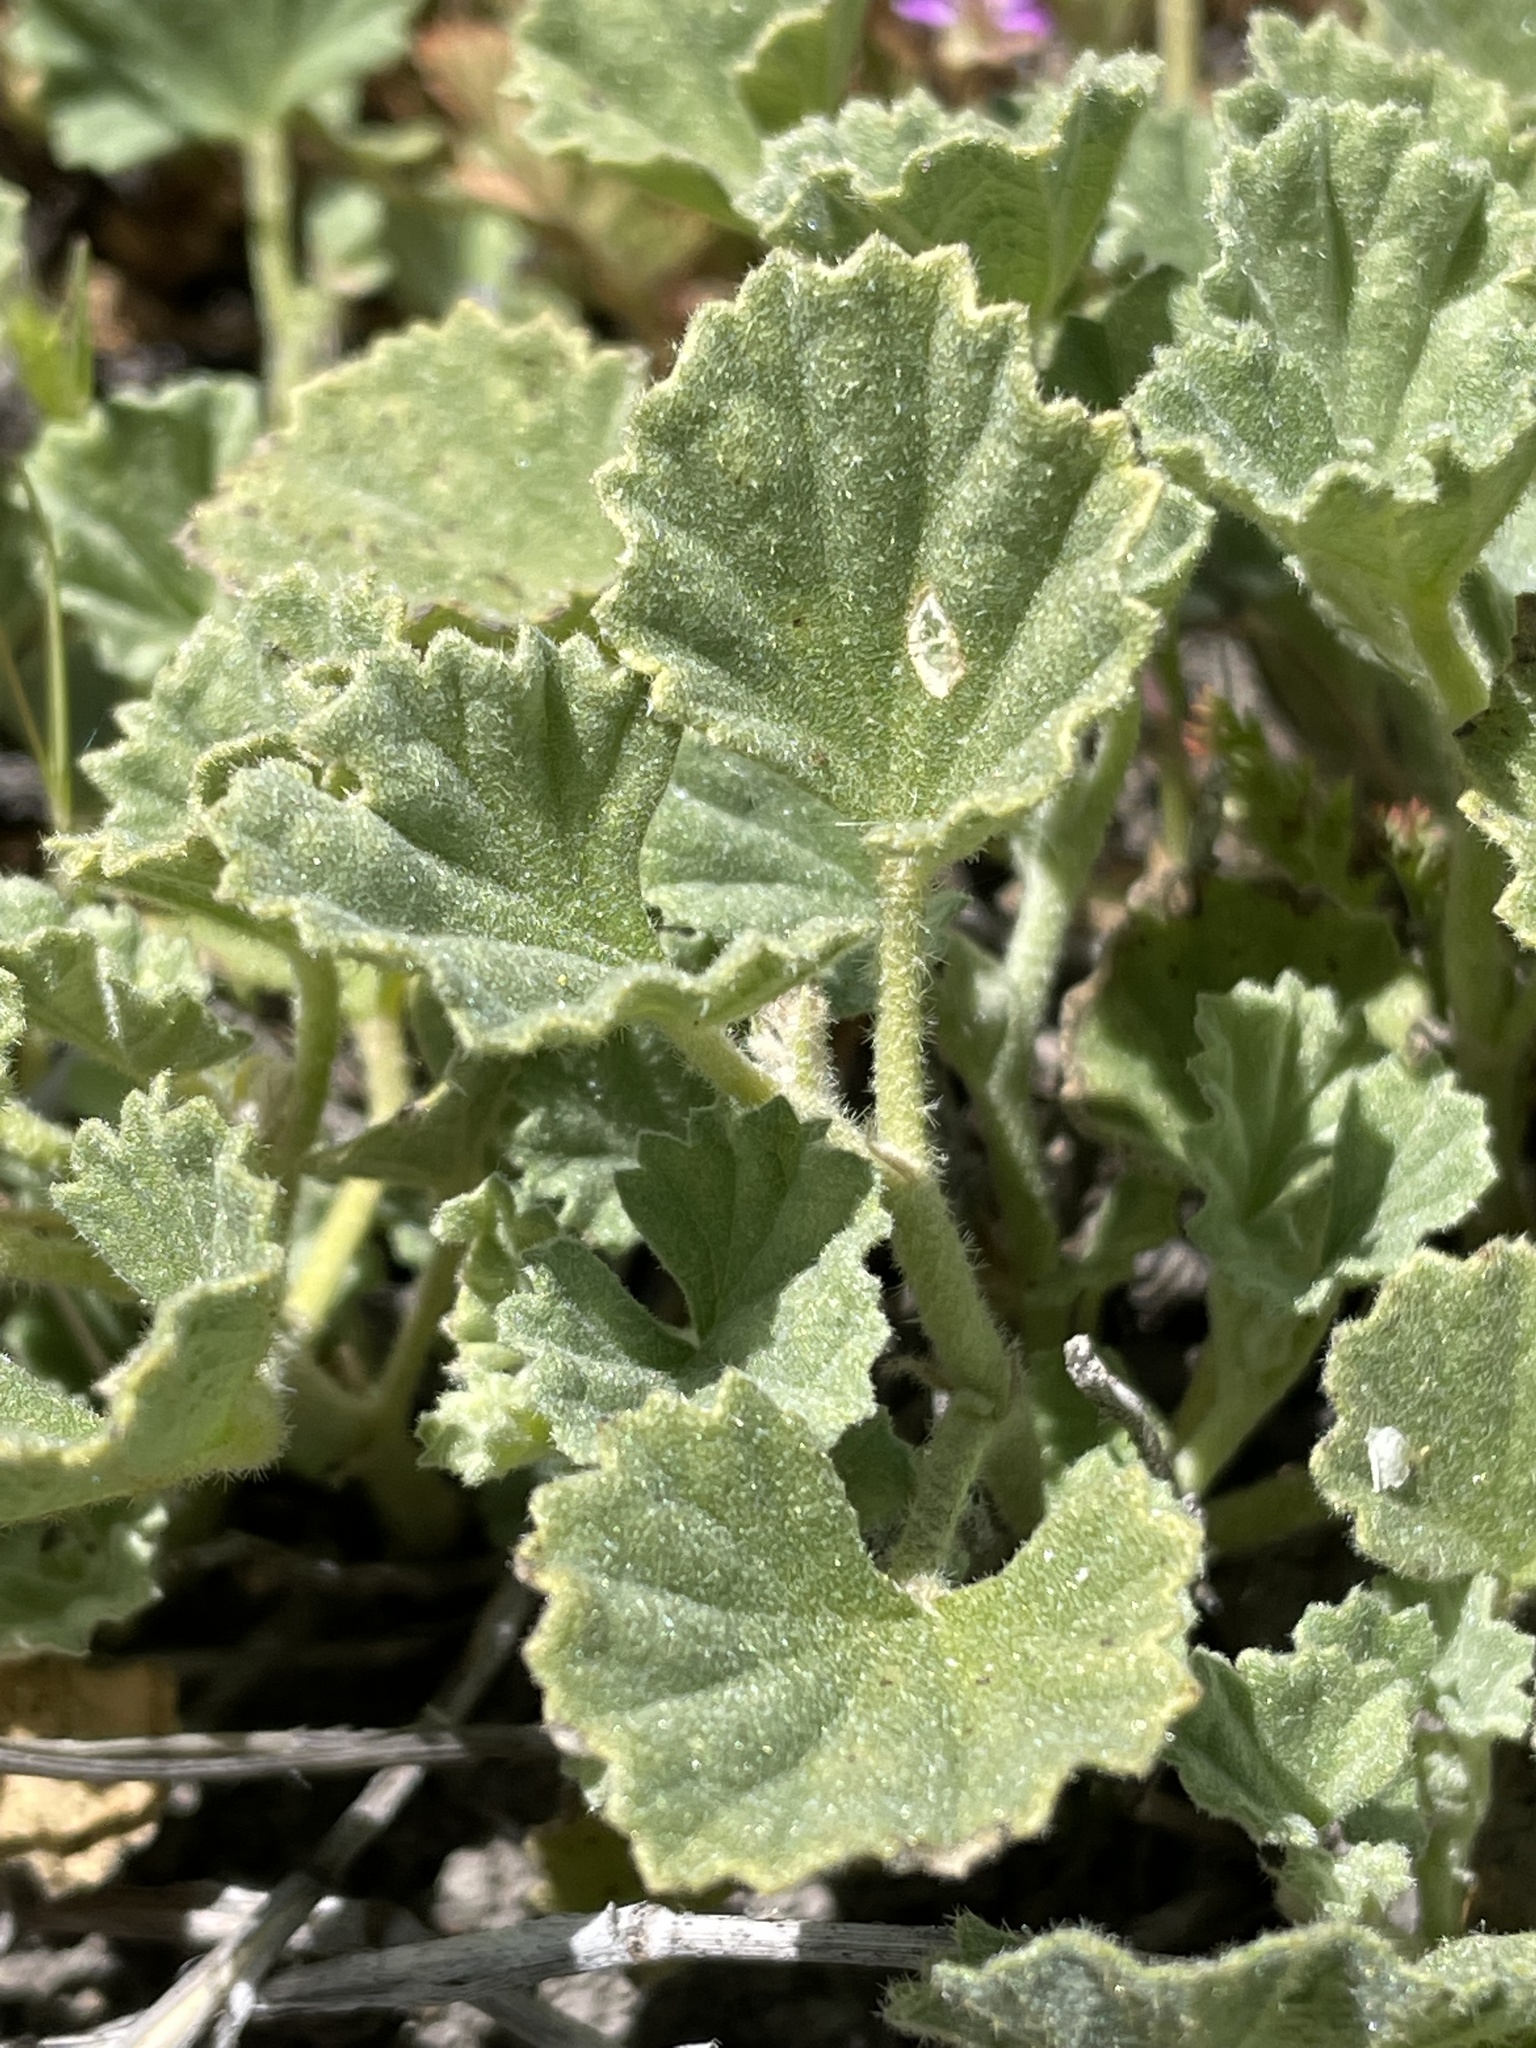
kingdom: Plantae
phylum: Tracheophyta
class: Magnoliopsida
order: Malvales
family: Malvaceae
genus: Malvella
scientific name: Malvella leprosa
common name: Alkali-mallow
